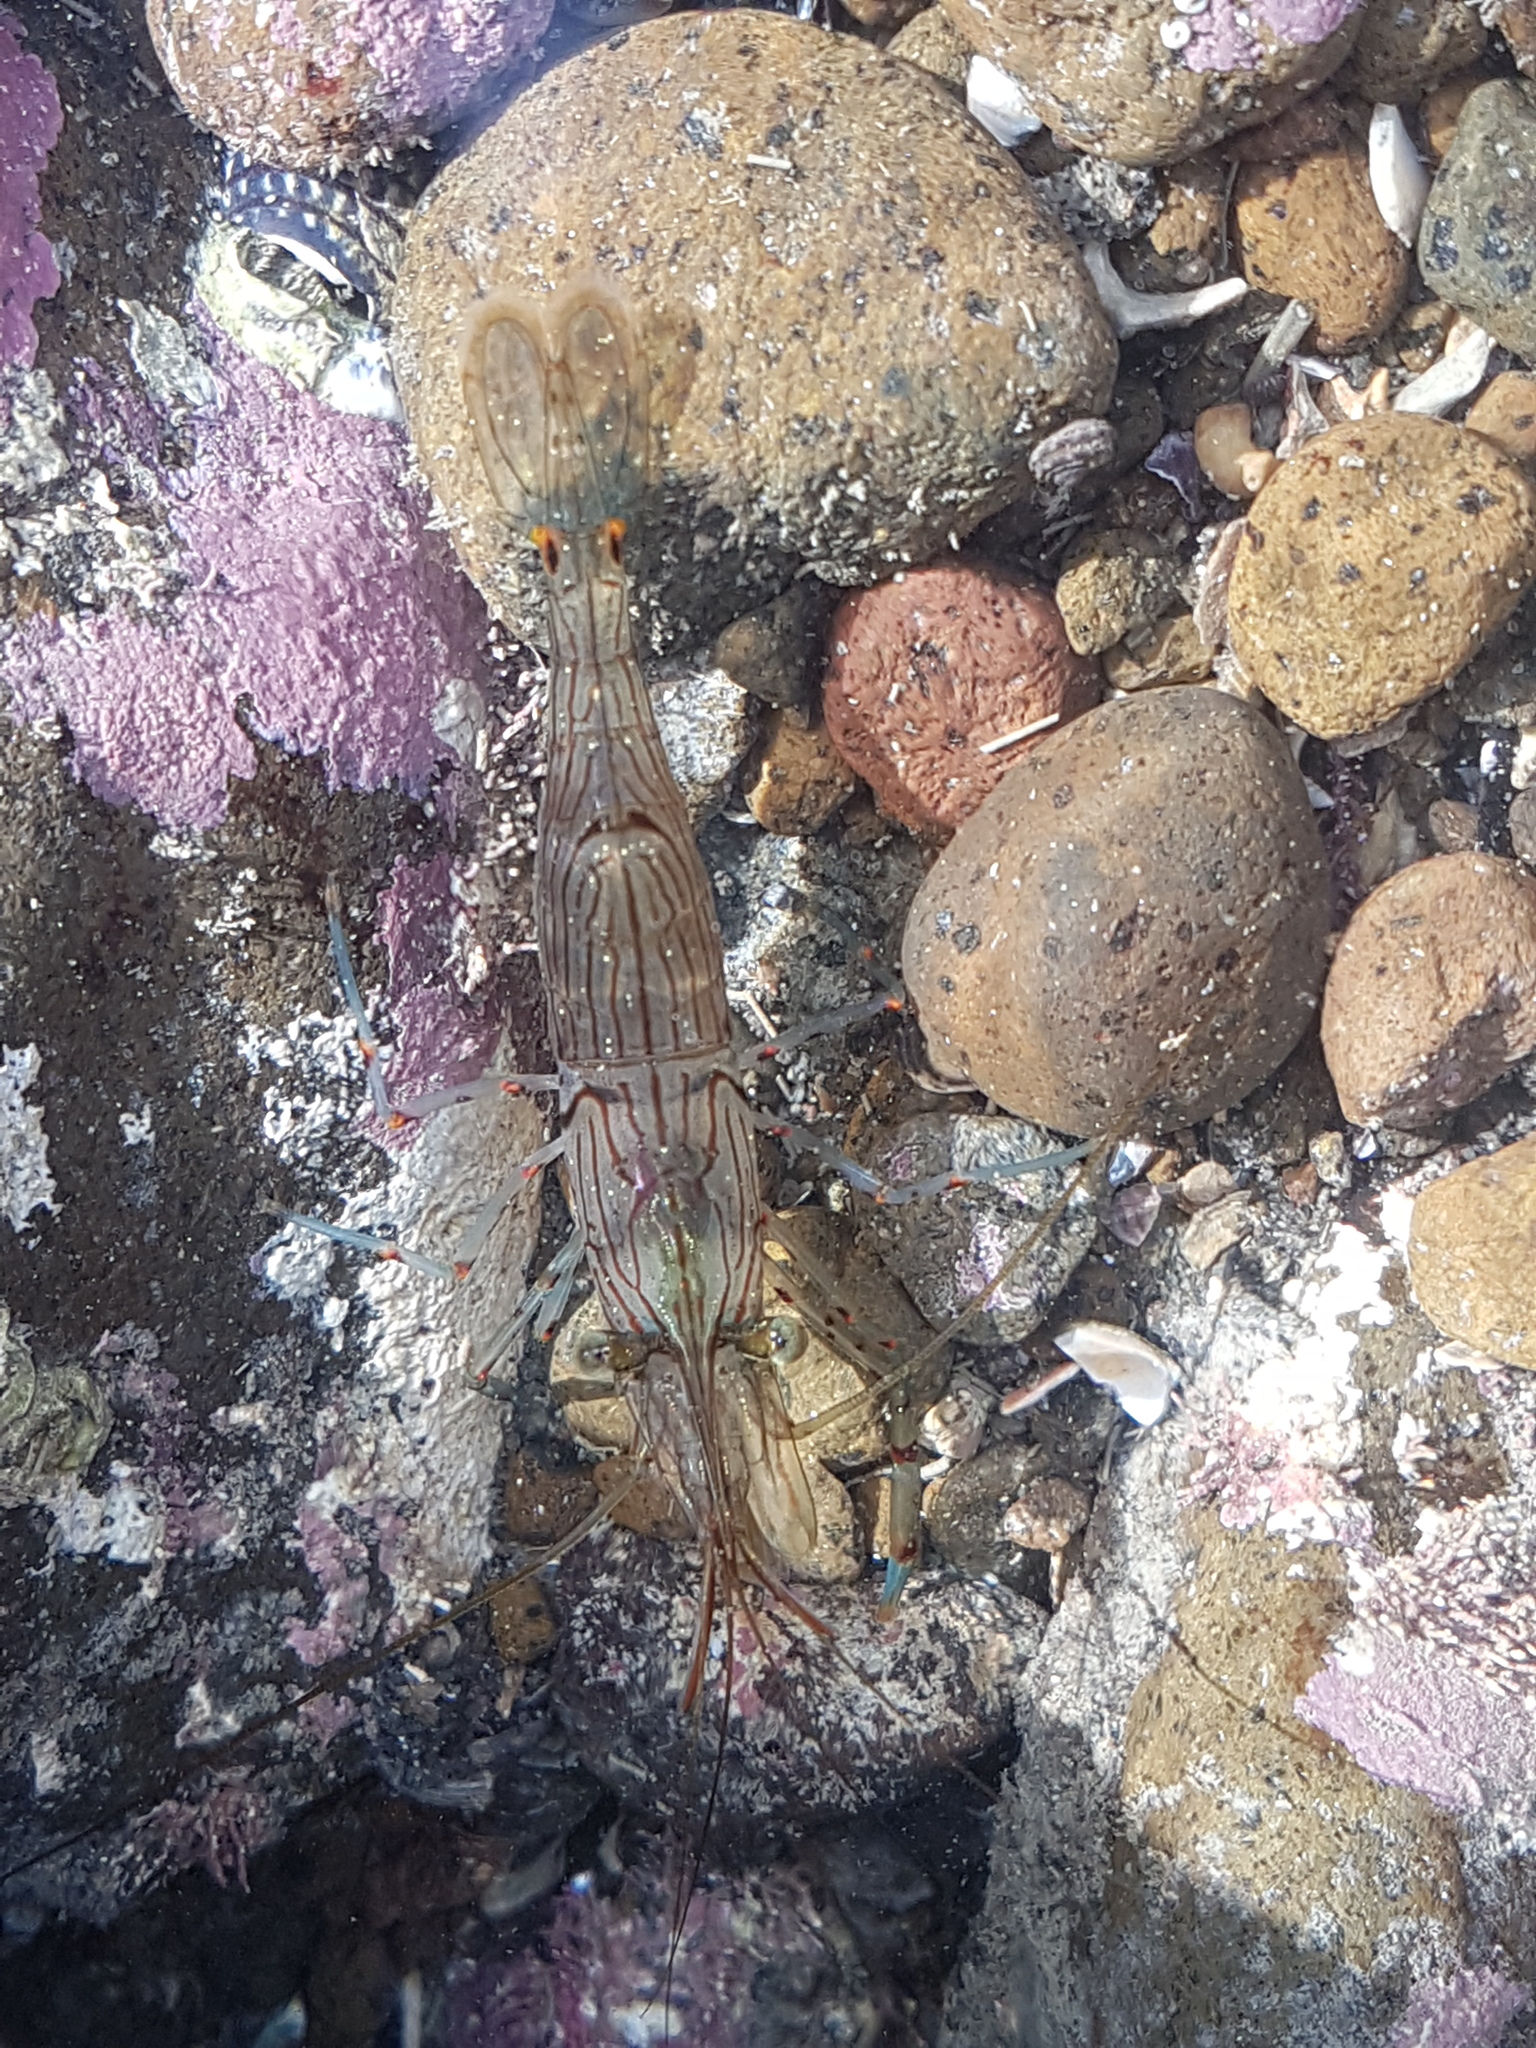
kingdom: Animalia
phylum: Arthropoda
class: Malacostraca
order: Decapoda
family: Hippolytidae
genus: Alope
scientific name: Alope spinifrons
